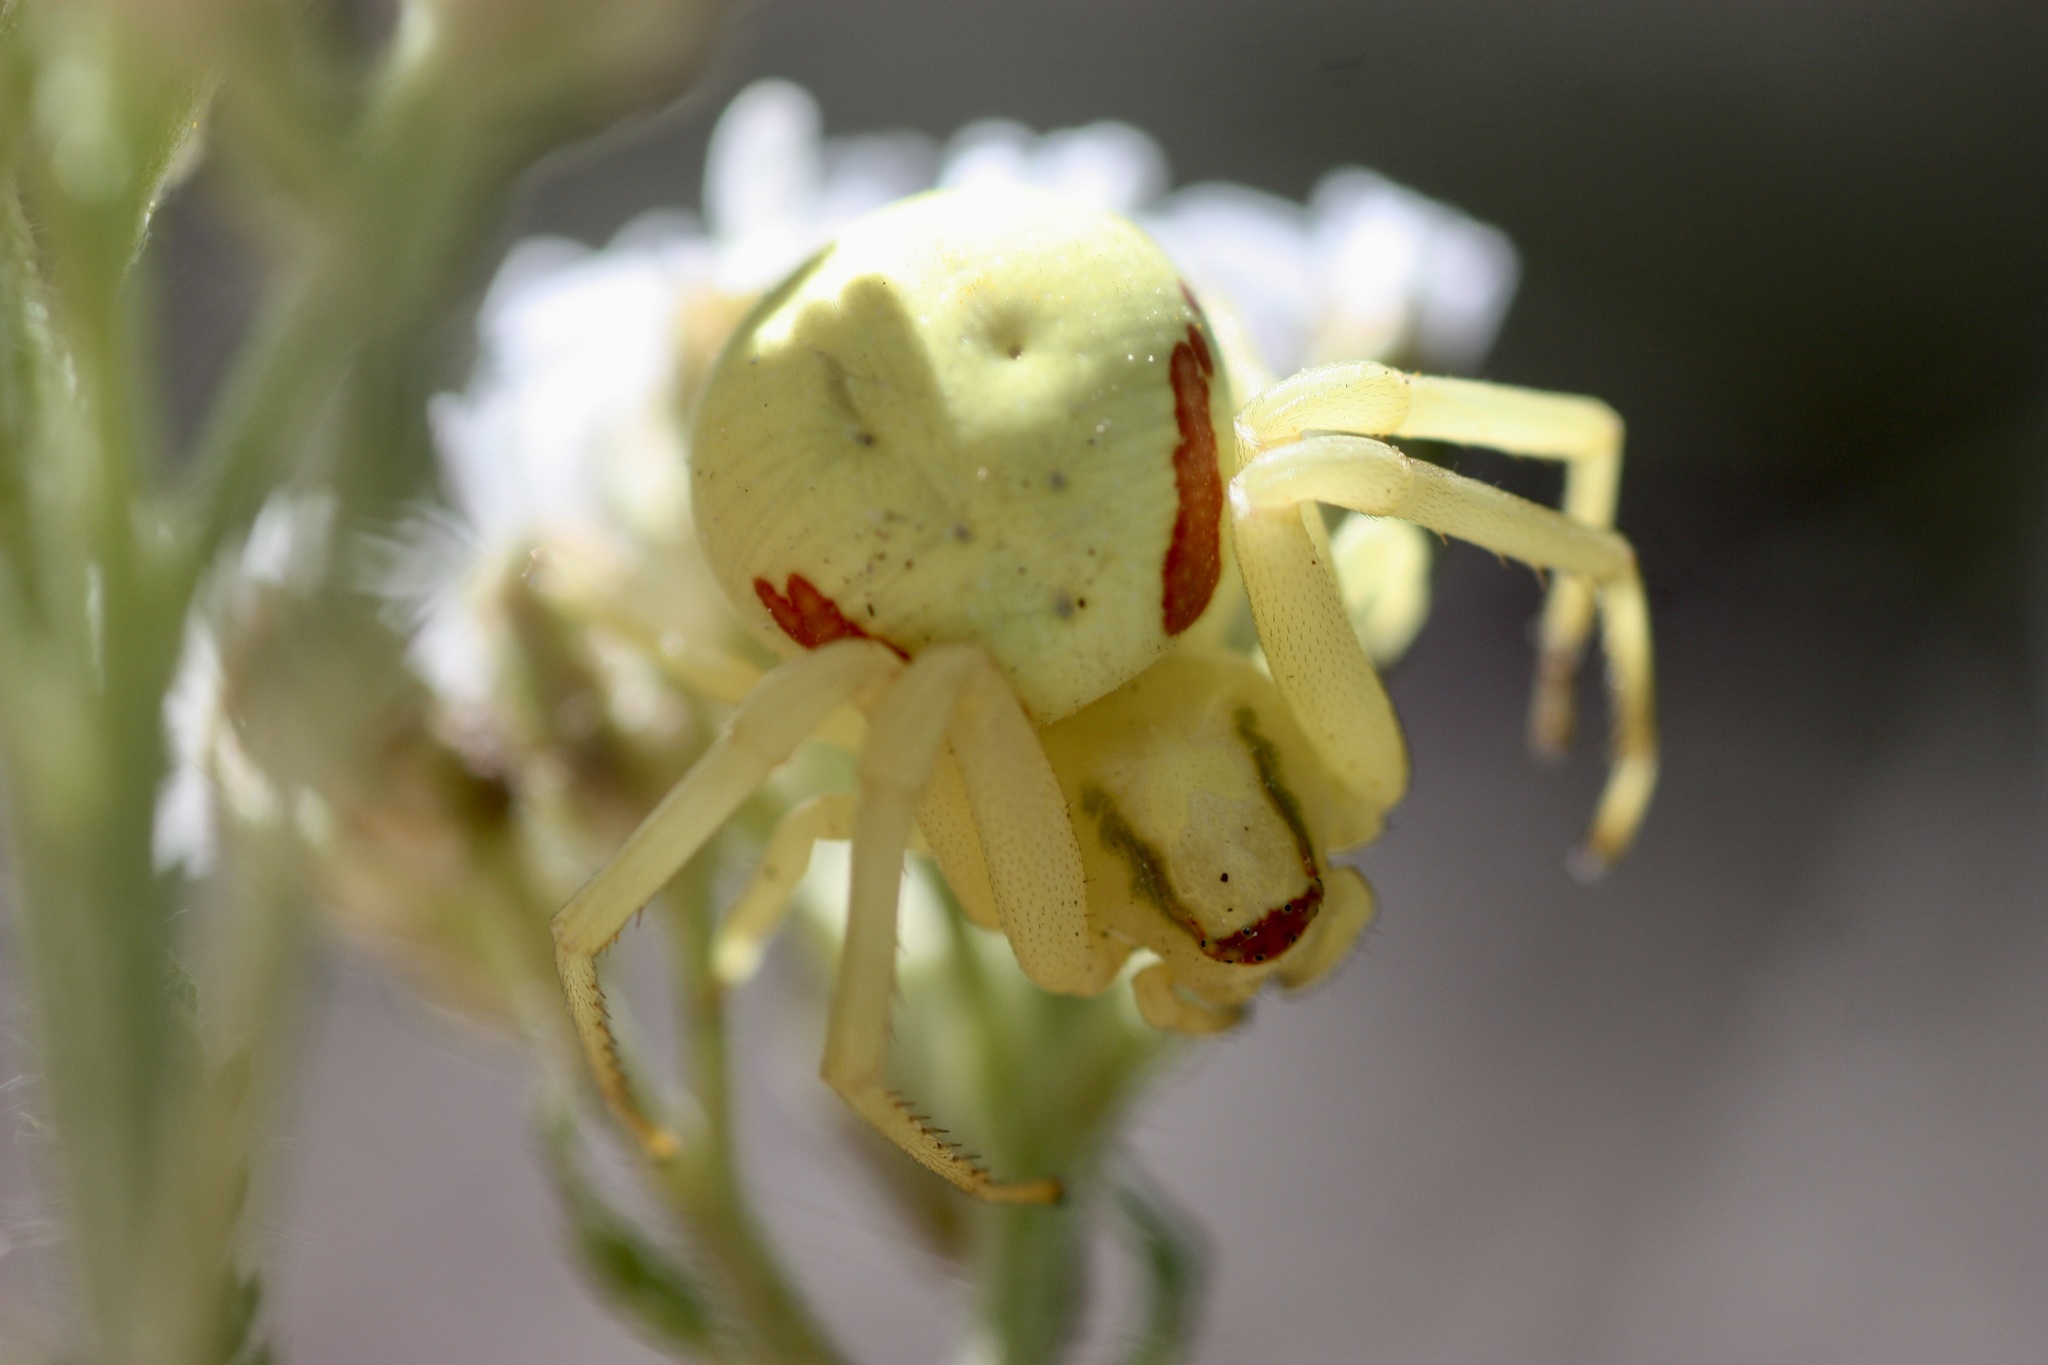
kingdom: Animalia
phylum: Arthropoda
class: Arachnida
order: Araneae
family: Thomisidae
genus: Misumena
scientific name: Misumena vatia
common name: Goldenrod crab spider
